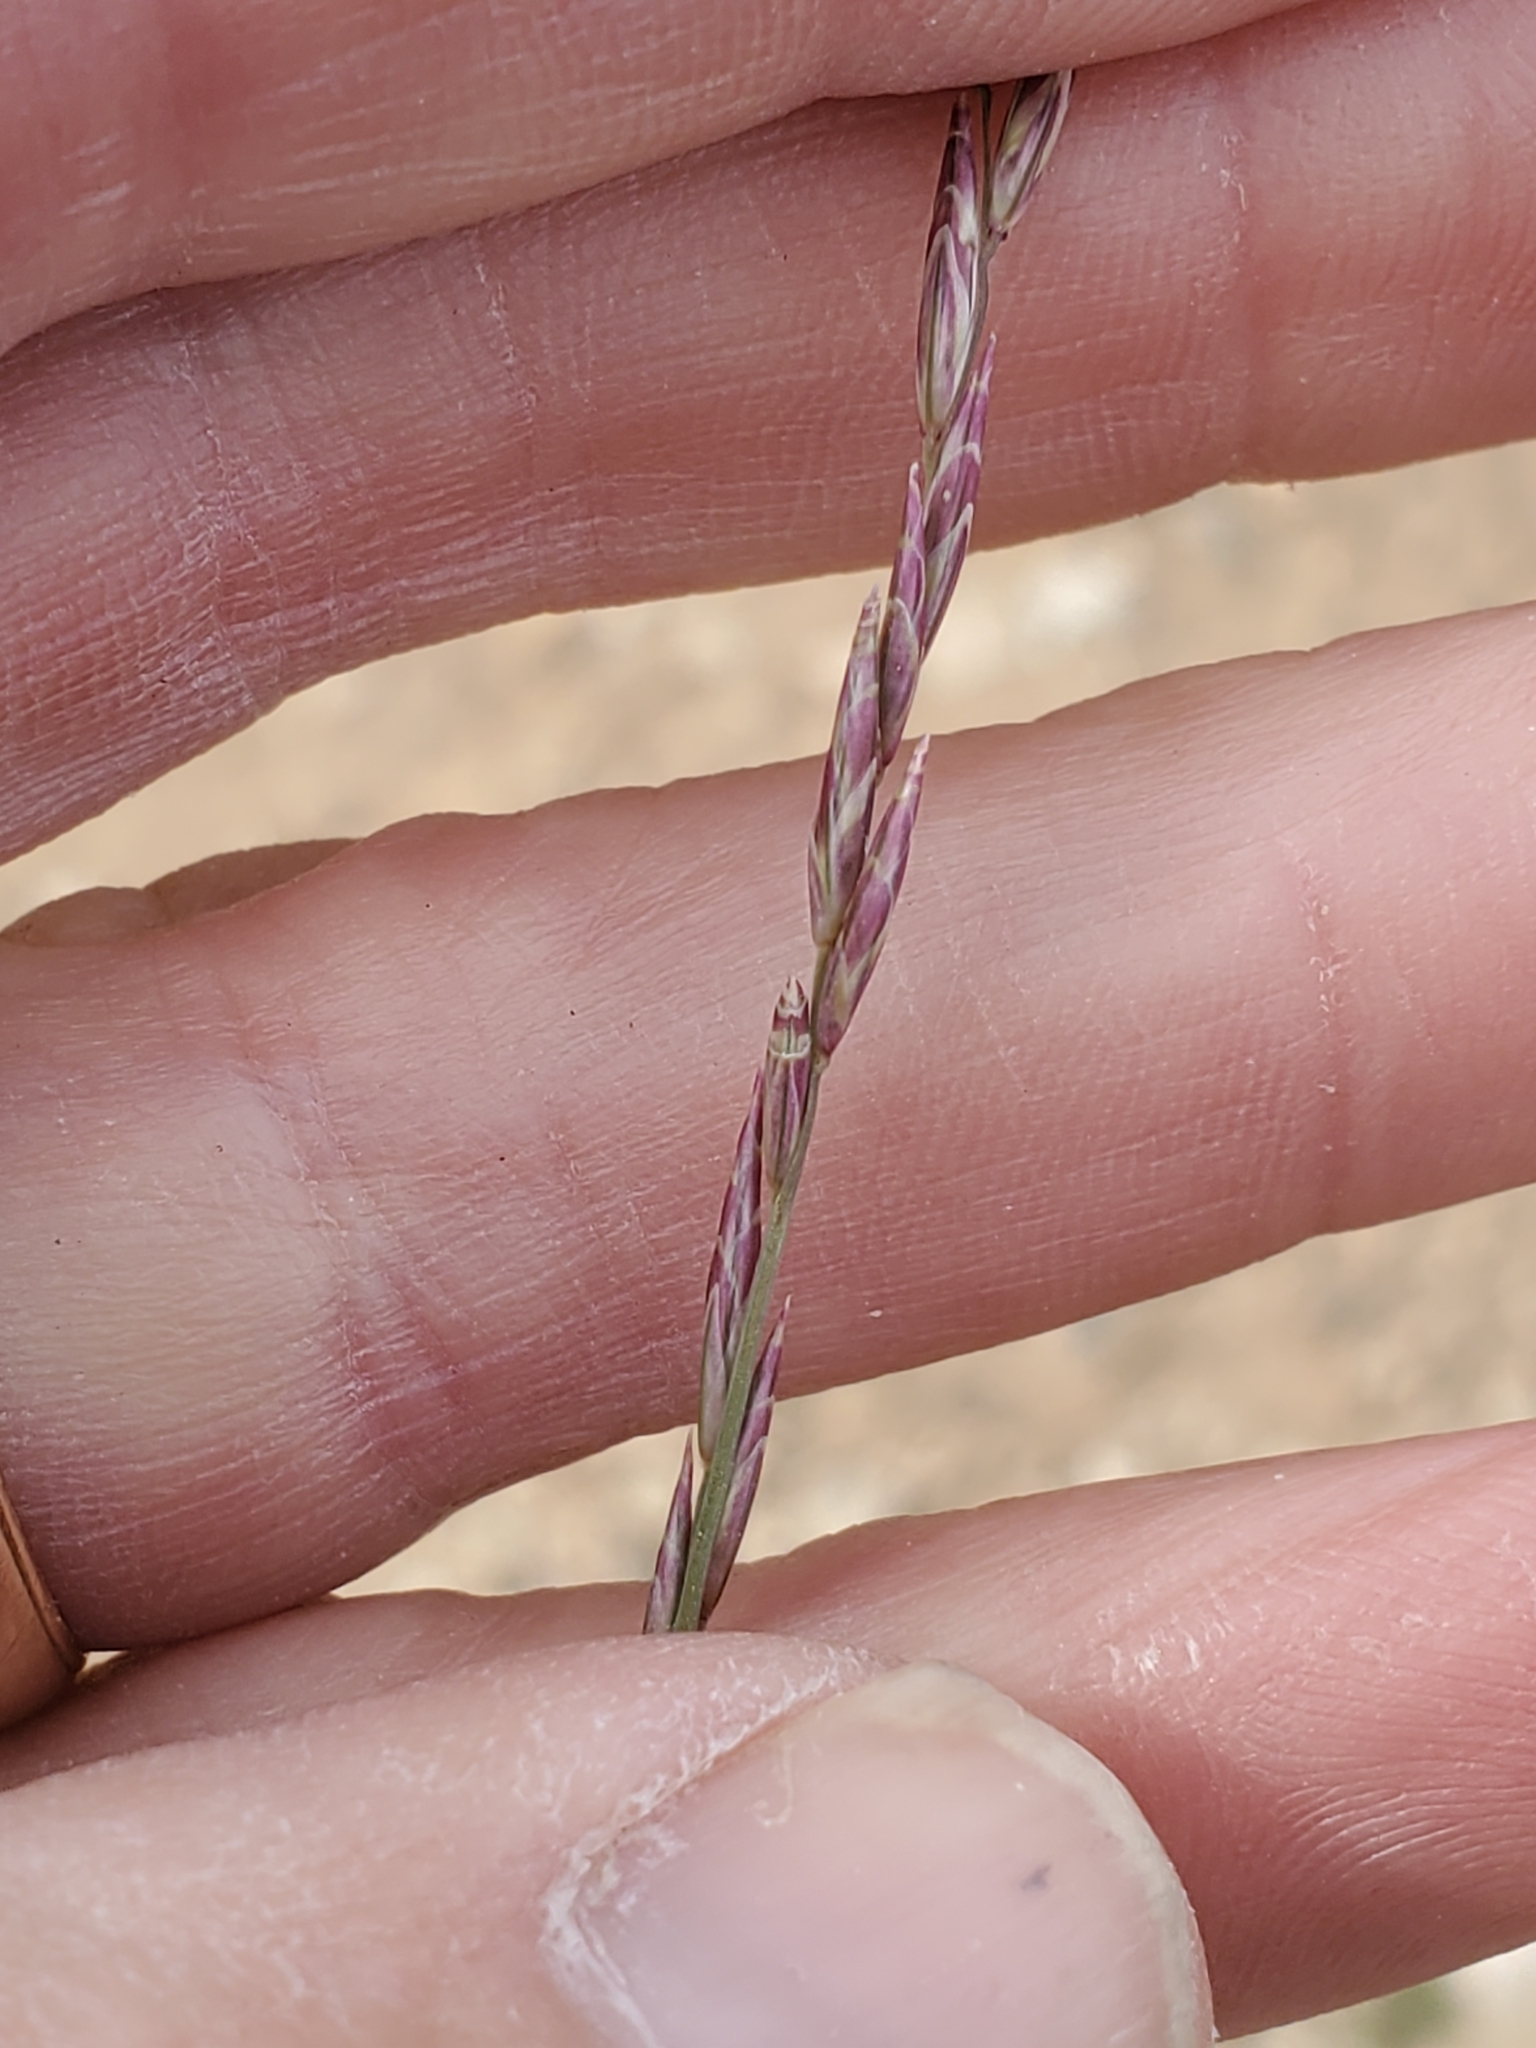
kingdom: Plantae
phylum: Tracheophyta
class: Liliopsida
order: Poales
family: Poaceae
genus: Tridentopsis
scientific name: Tridentopsis mutica
